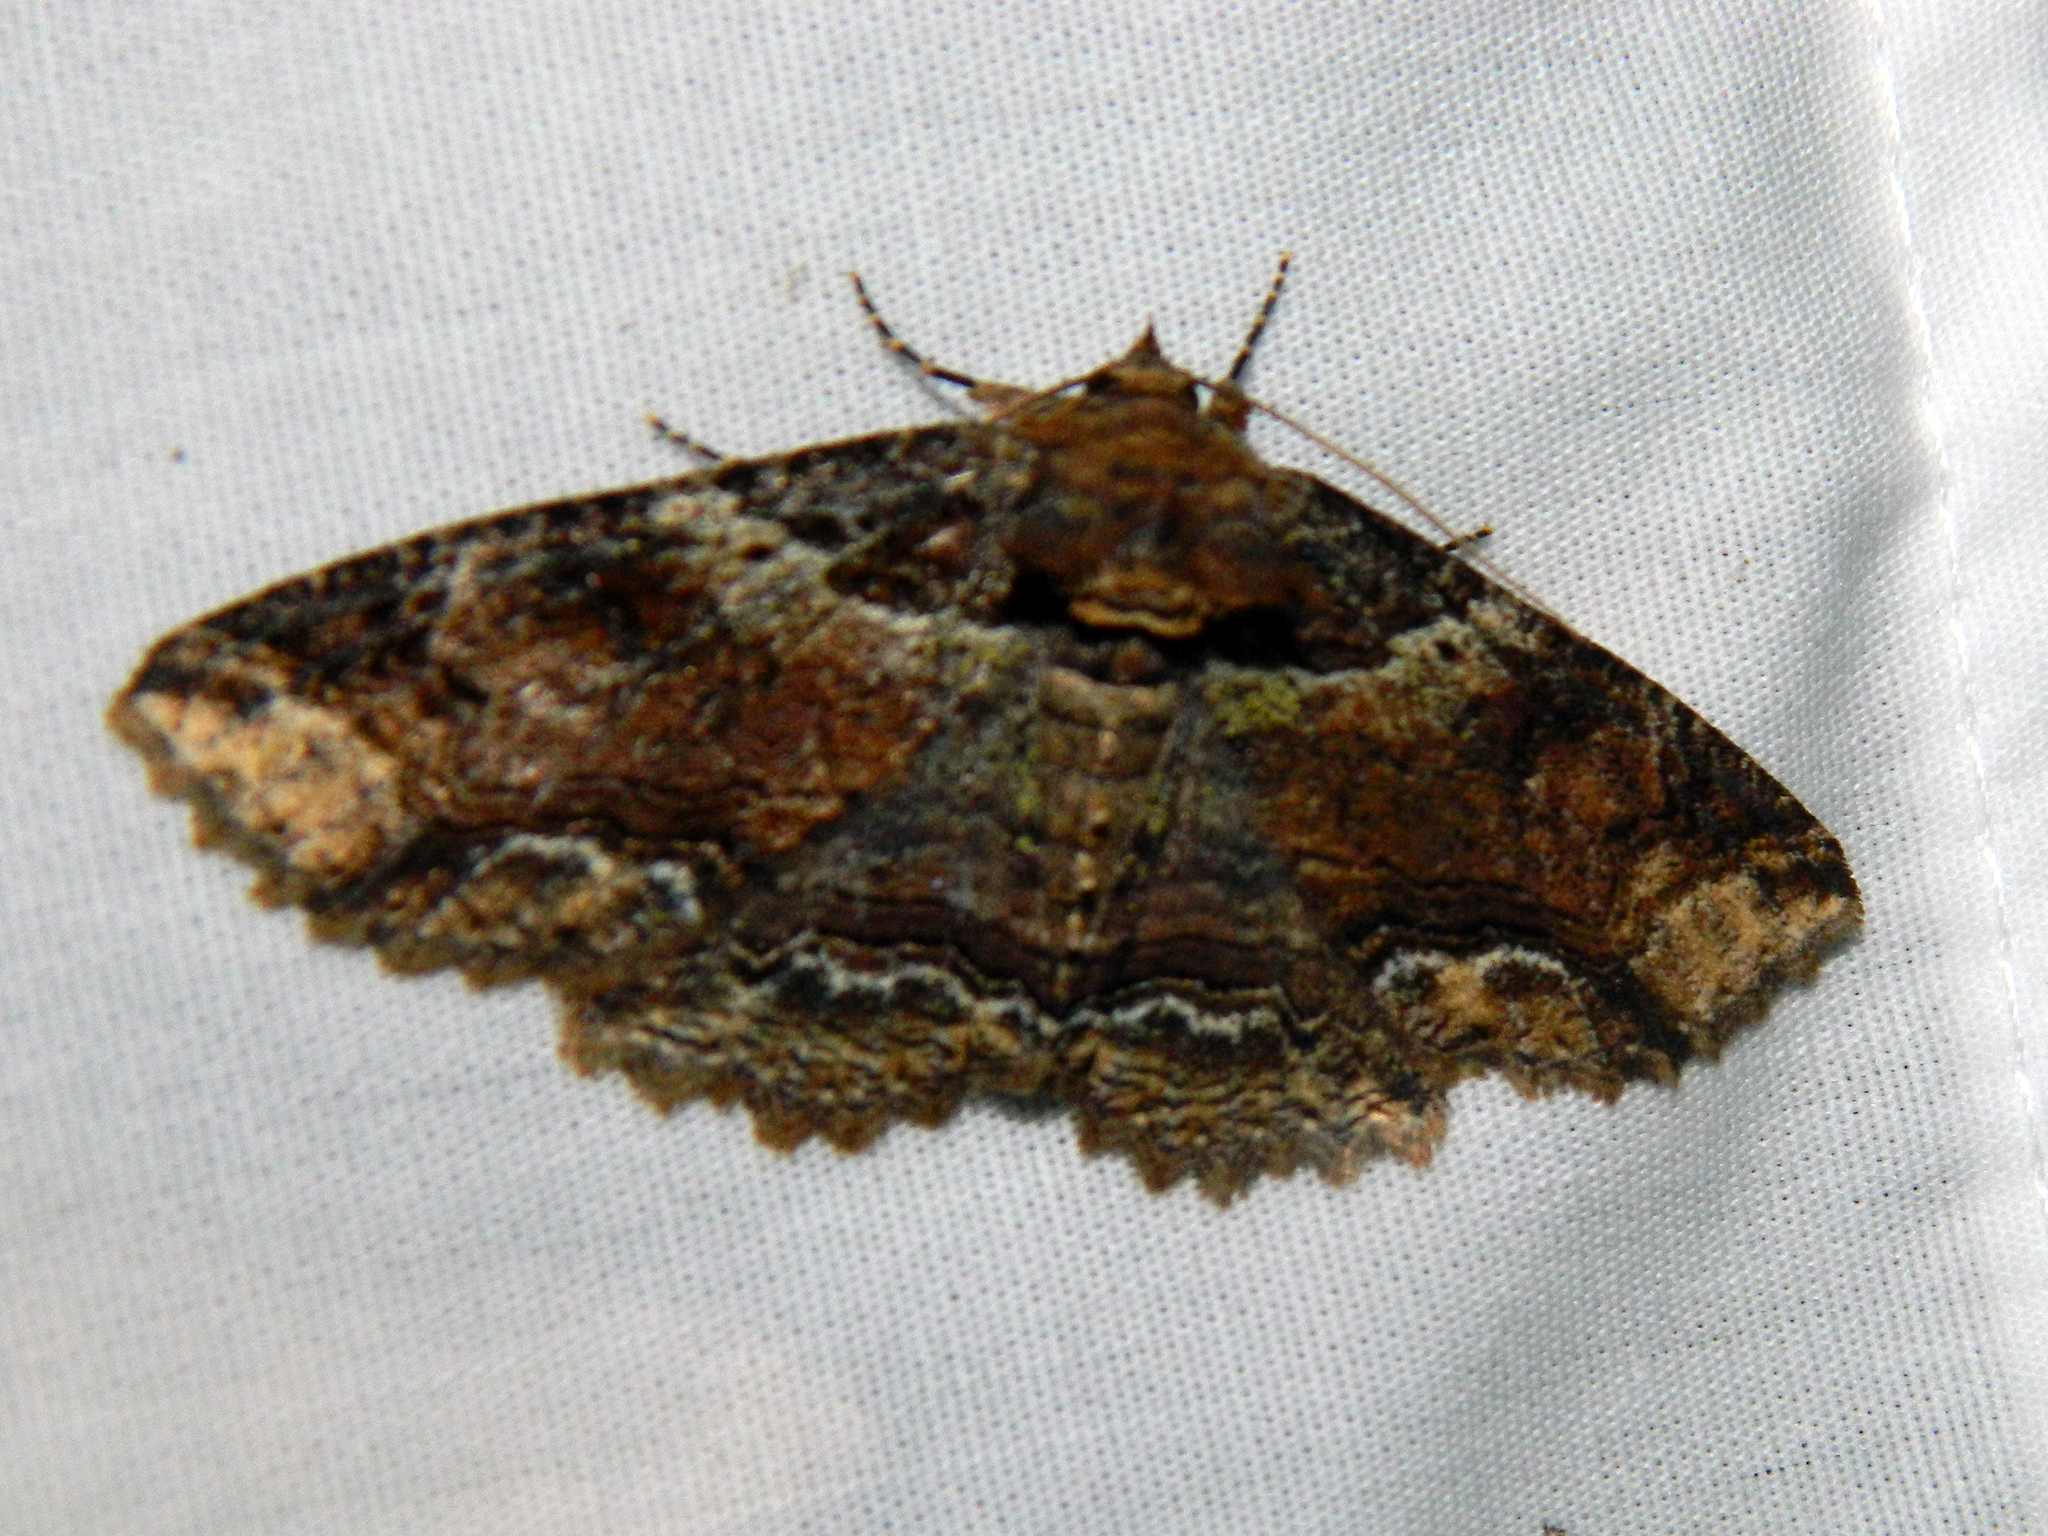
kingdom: Animalia
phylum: Arthropoda
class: Insecta
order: Lepidoptera
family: Erebidae
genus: Zale
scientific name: Zale minerea
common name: Colorful zale moth
